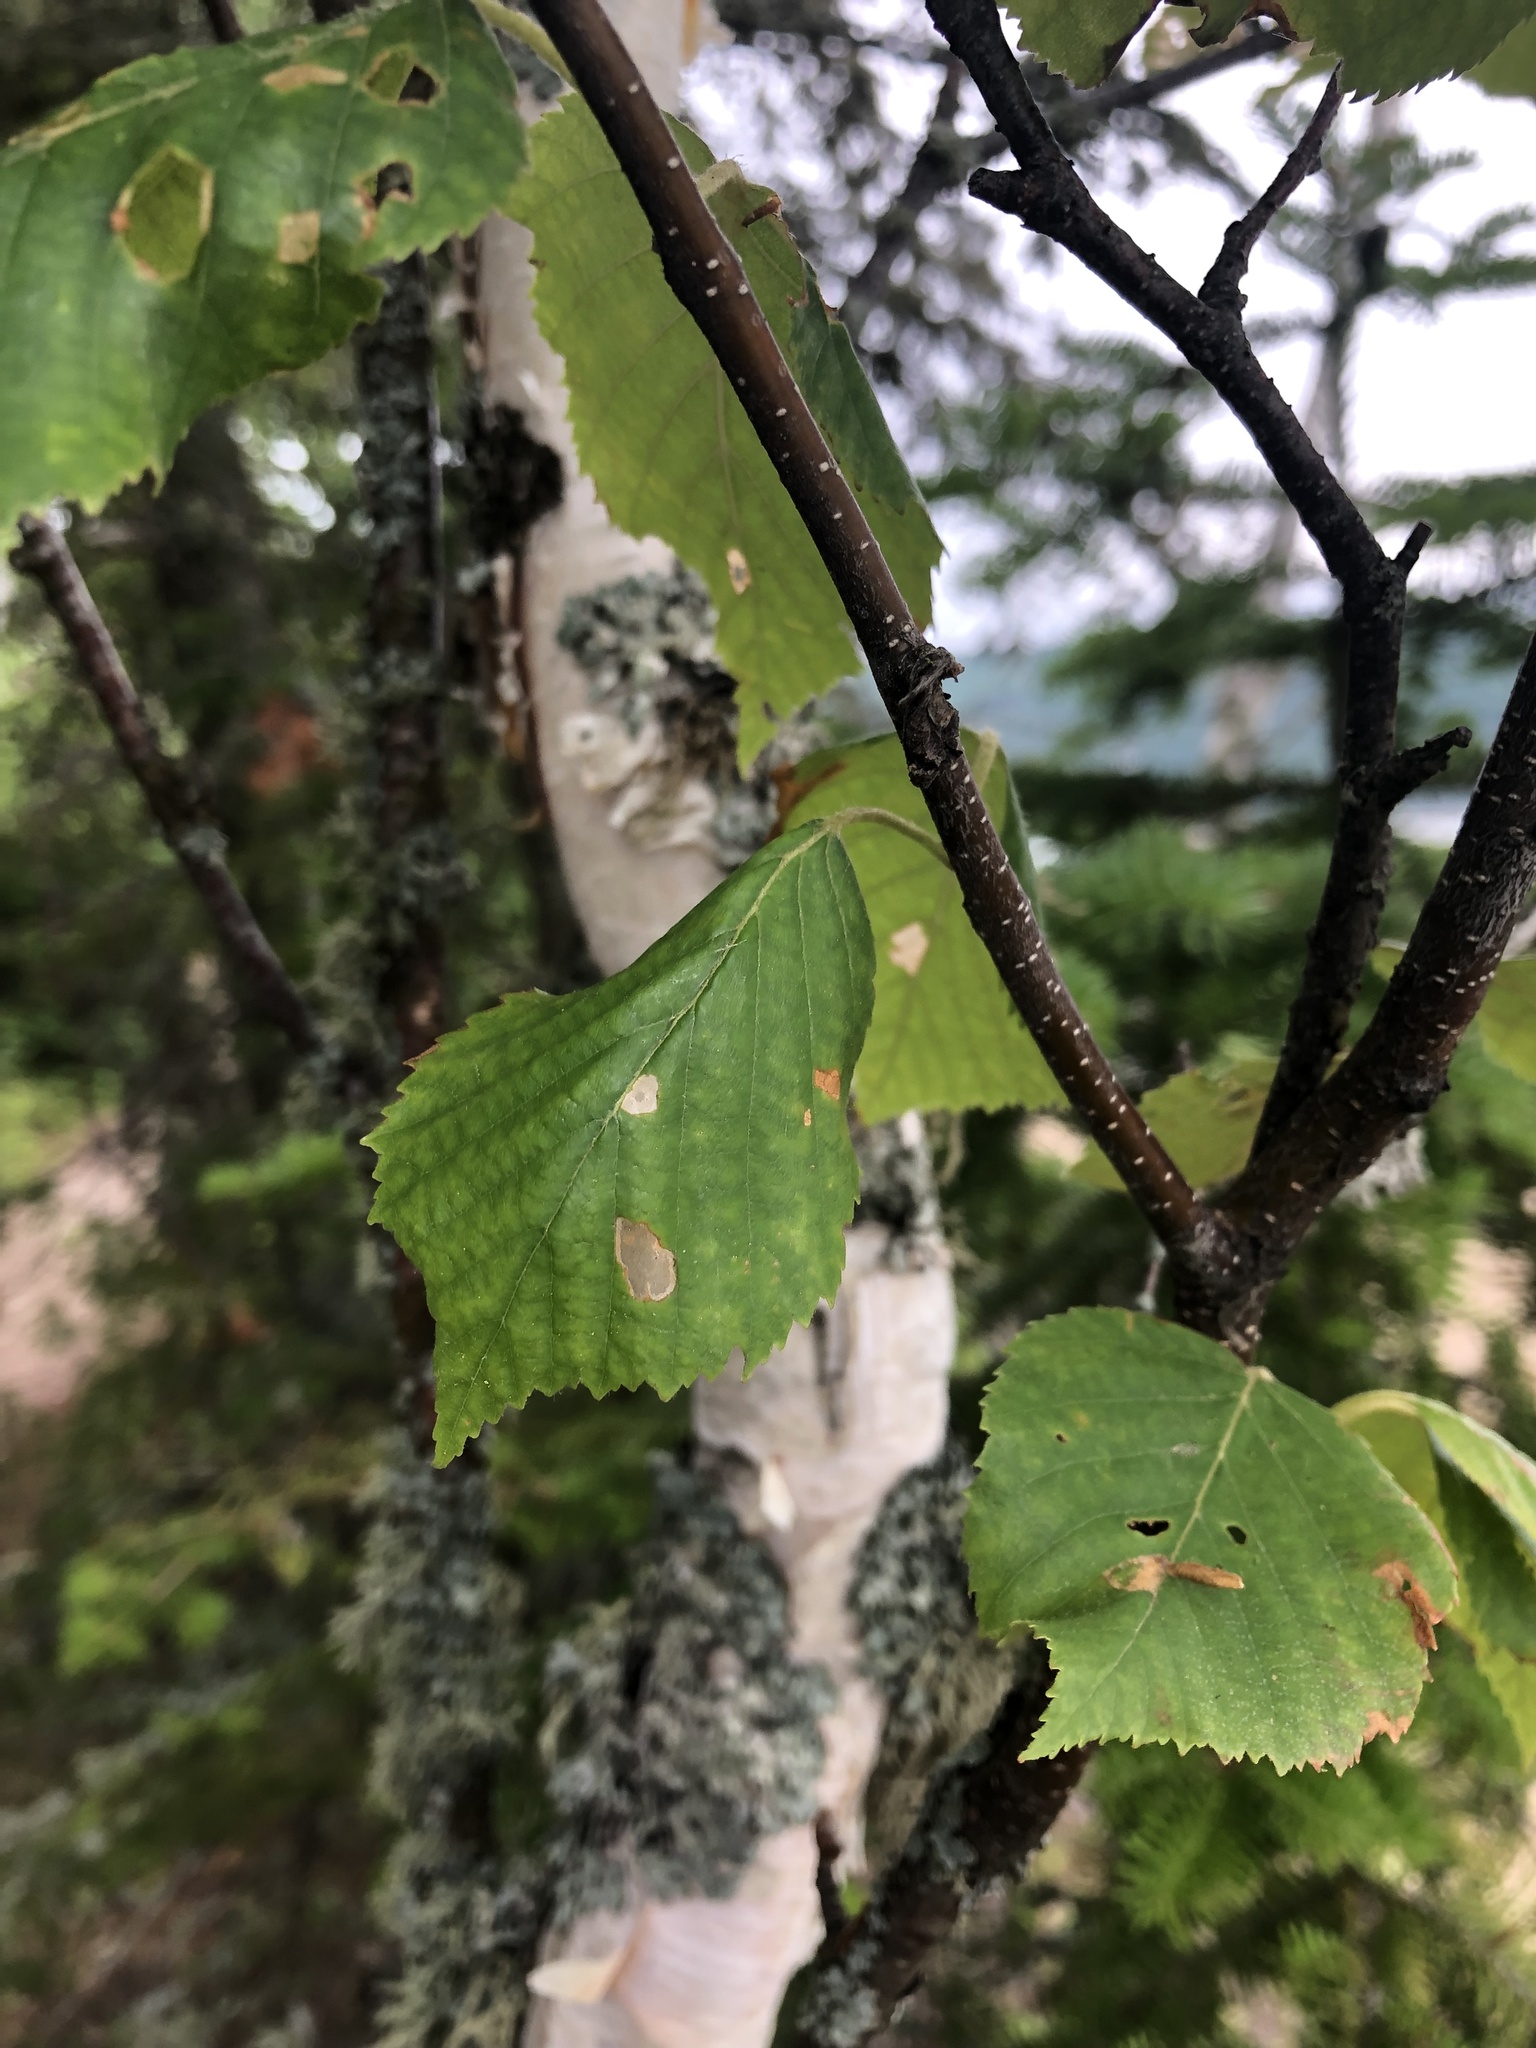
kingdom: Plantae
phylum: Tracheophyta
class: Magnoliopsida
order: Fagales
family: Betulaceae
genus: Betula
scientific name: Betula papyrifera
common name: Paper birch
